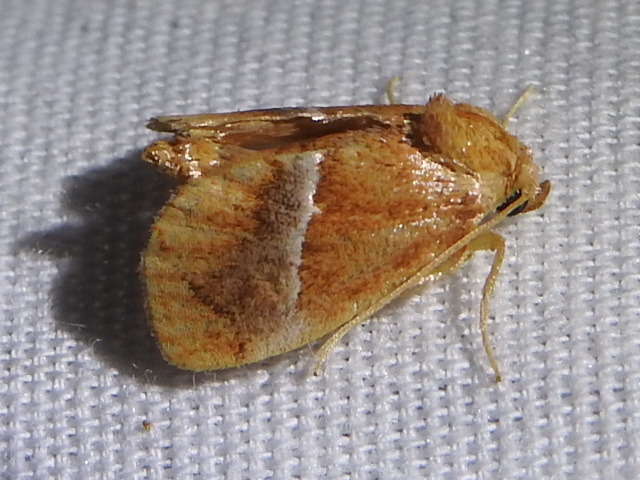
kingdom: Animalia
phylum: Arthropoda
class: Insecta
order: Lepidoptera
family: Limacodidae
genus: Lithacodes
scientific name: Lithacodes fasciola
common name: Yellow-shouldered slug moth
